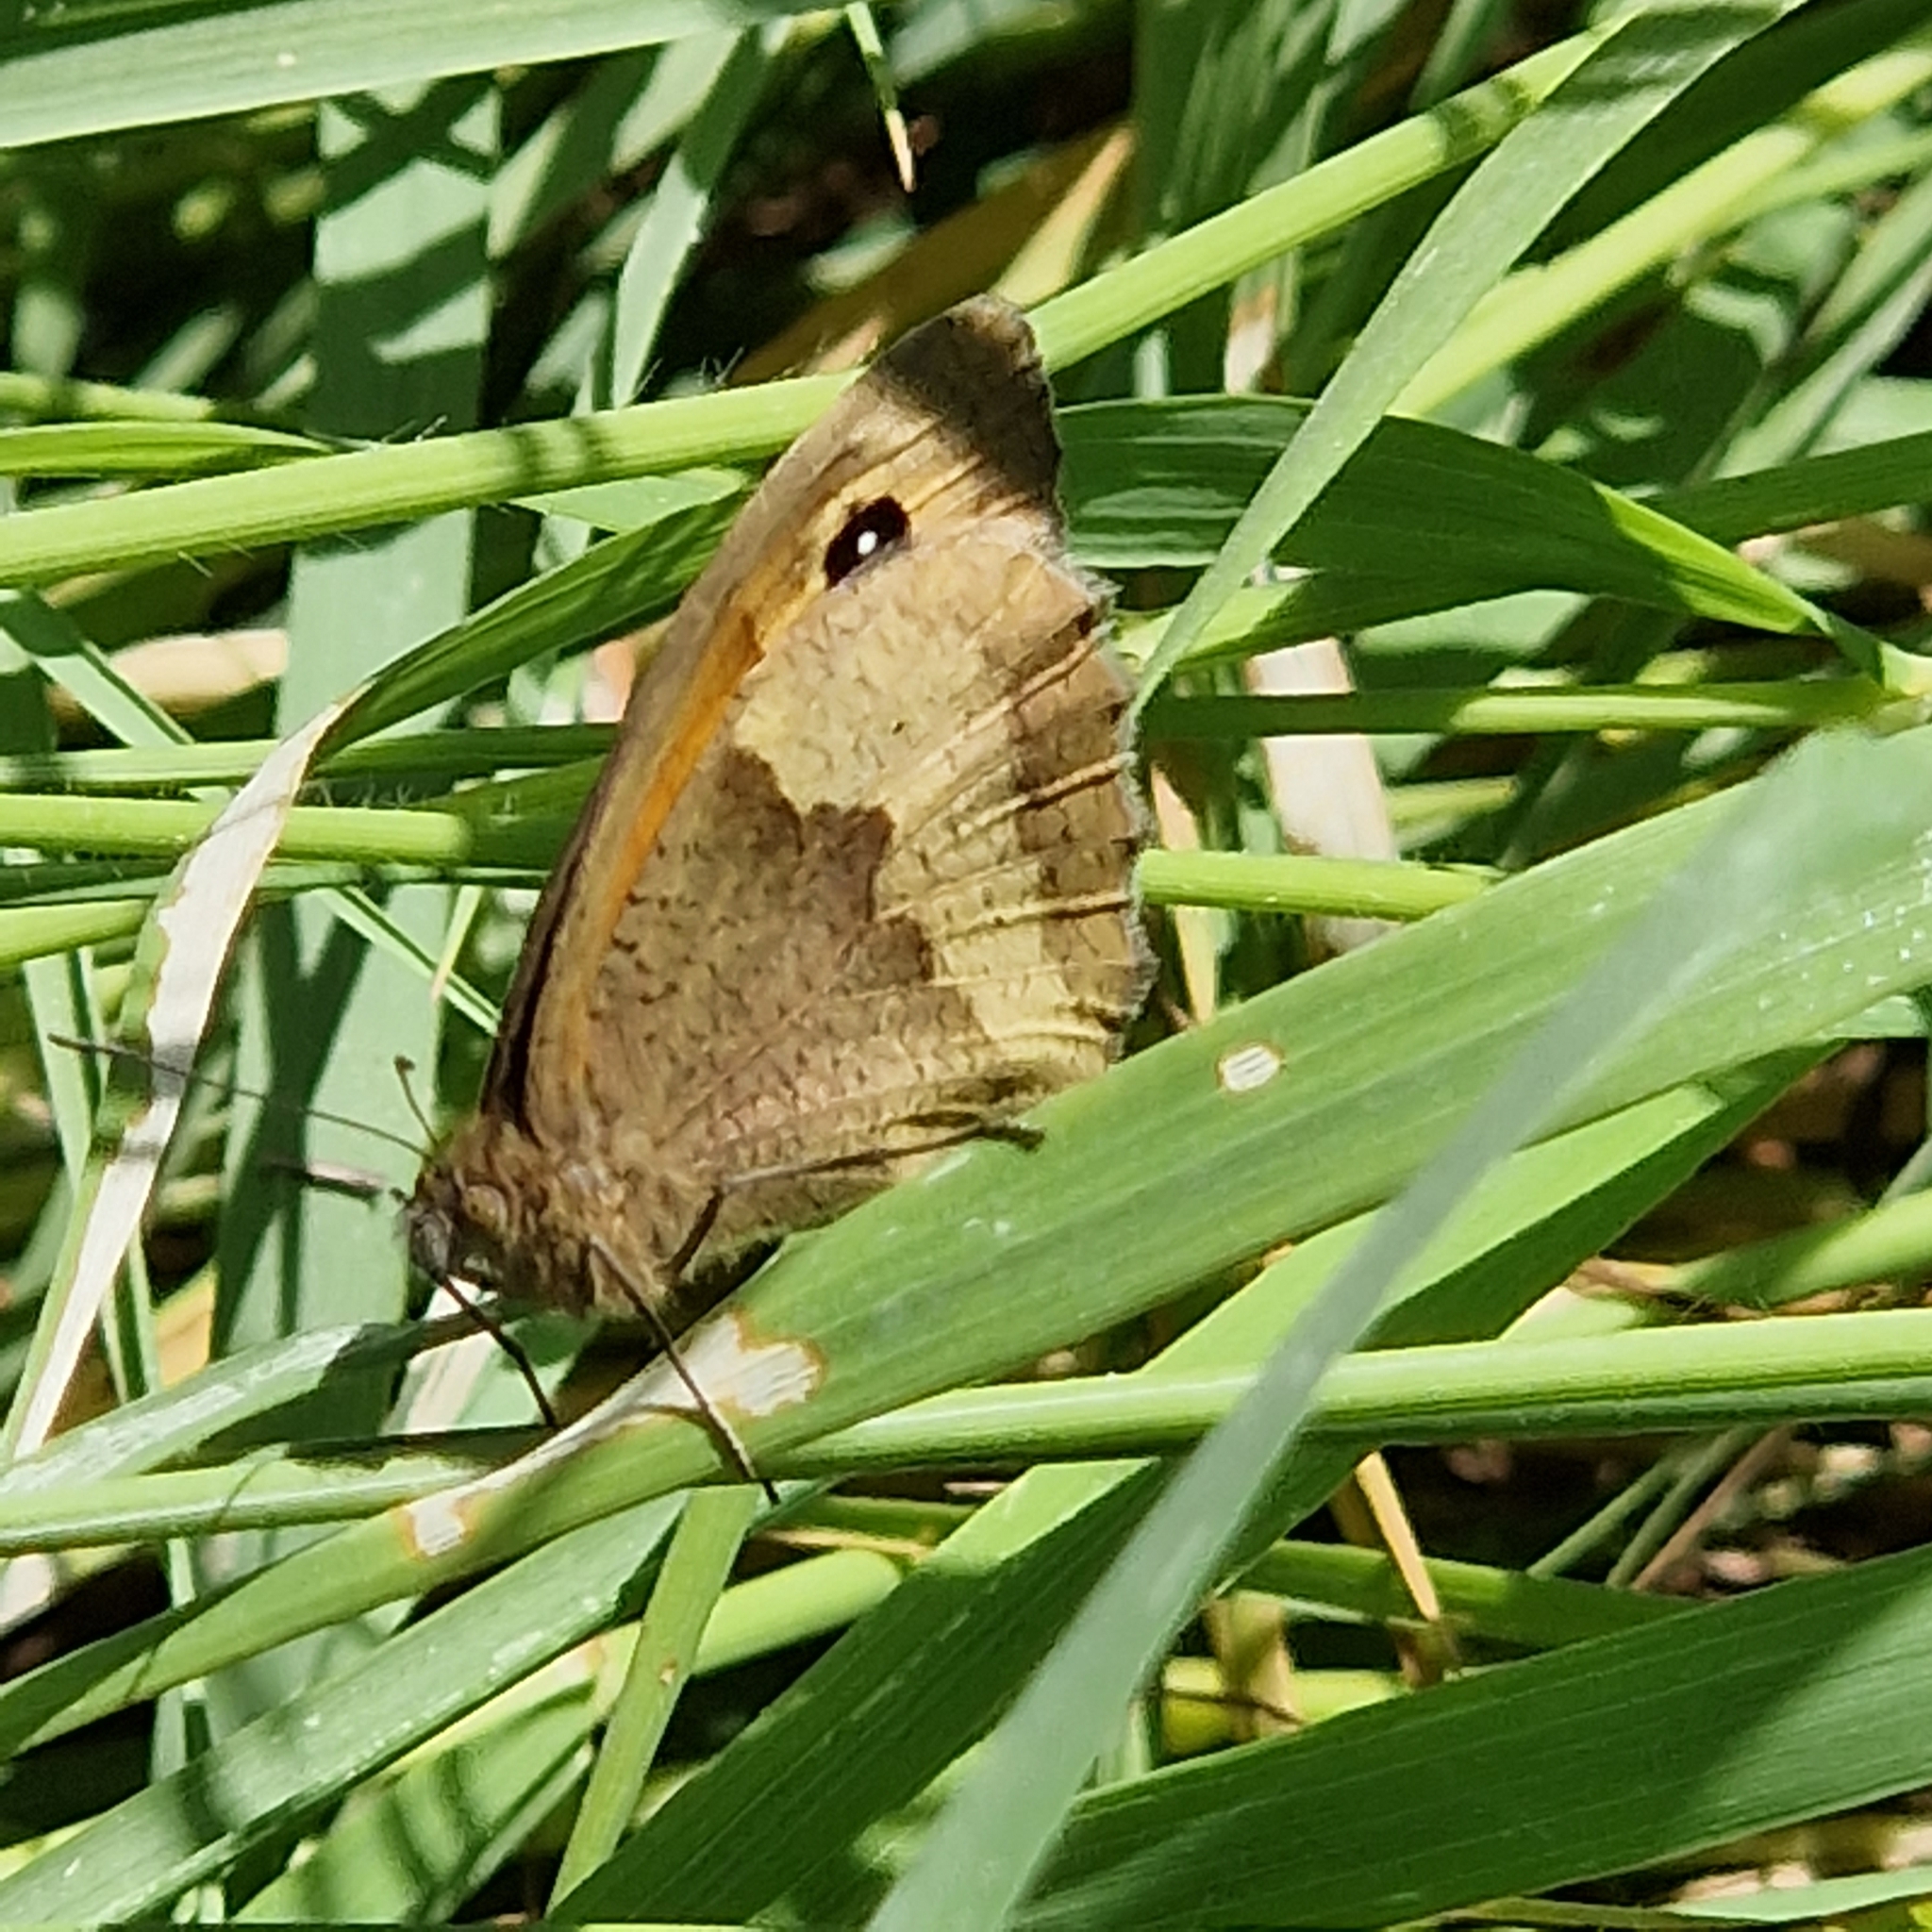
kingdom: Animalia
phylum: Arthropoda
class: Insecta
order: Lepidoptera
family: Nymphalidae
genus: Maniola
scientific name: Maniola jurtina
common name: Meadow brown
